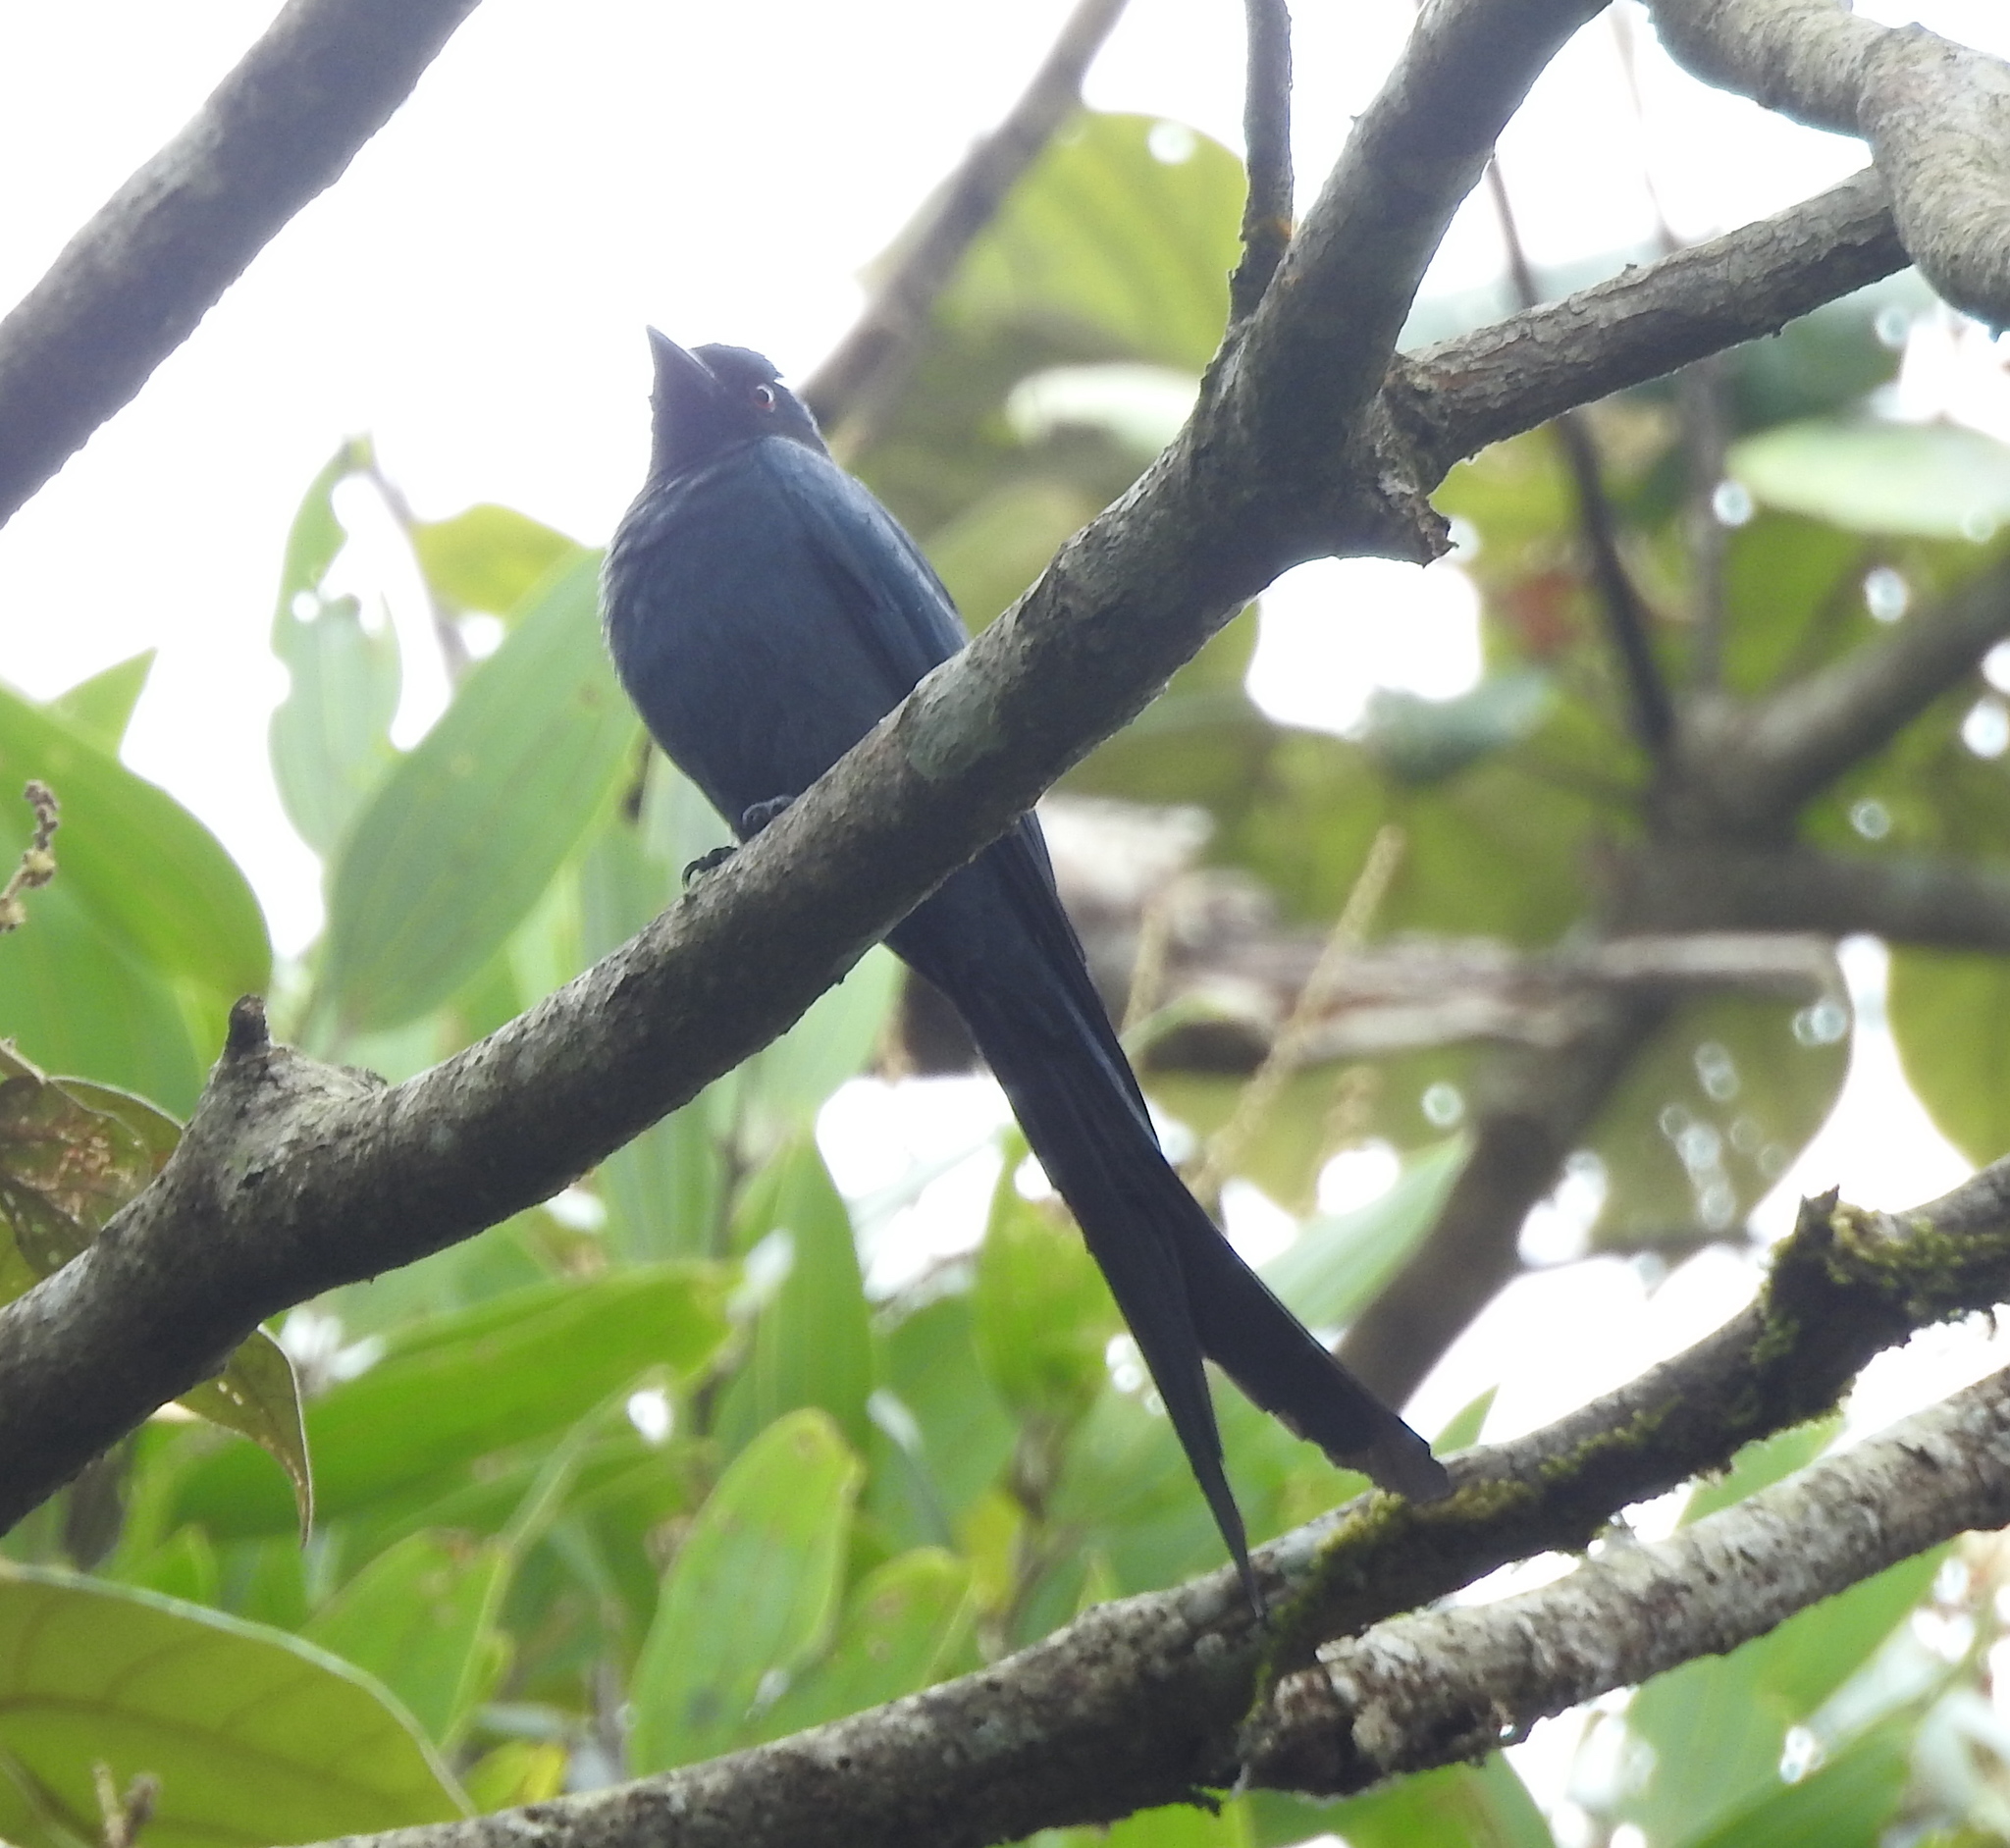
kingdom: Animalia
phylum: Chordata
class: Aves
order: Passeriformes
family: Dicruridae
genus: Dicrurus
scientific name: Dicrurus leucophaeus
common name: Ashy drongo
